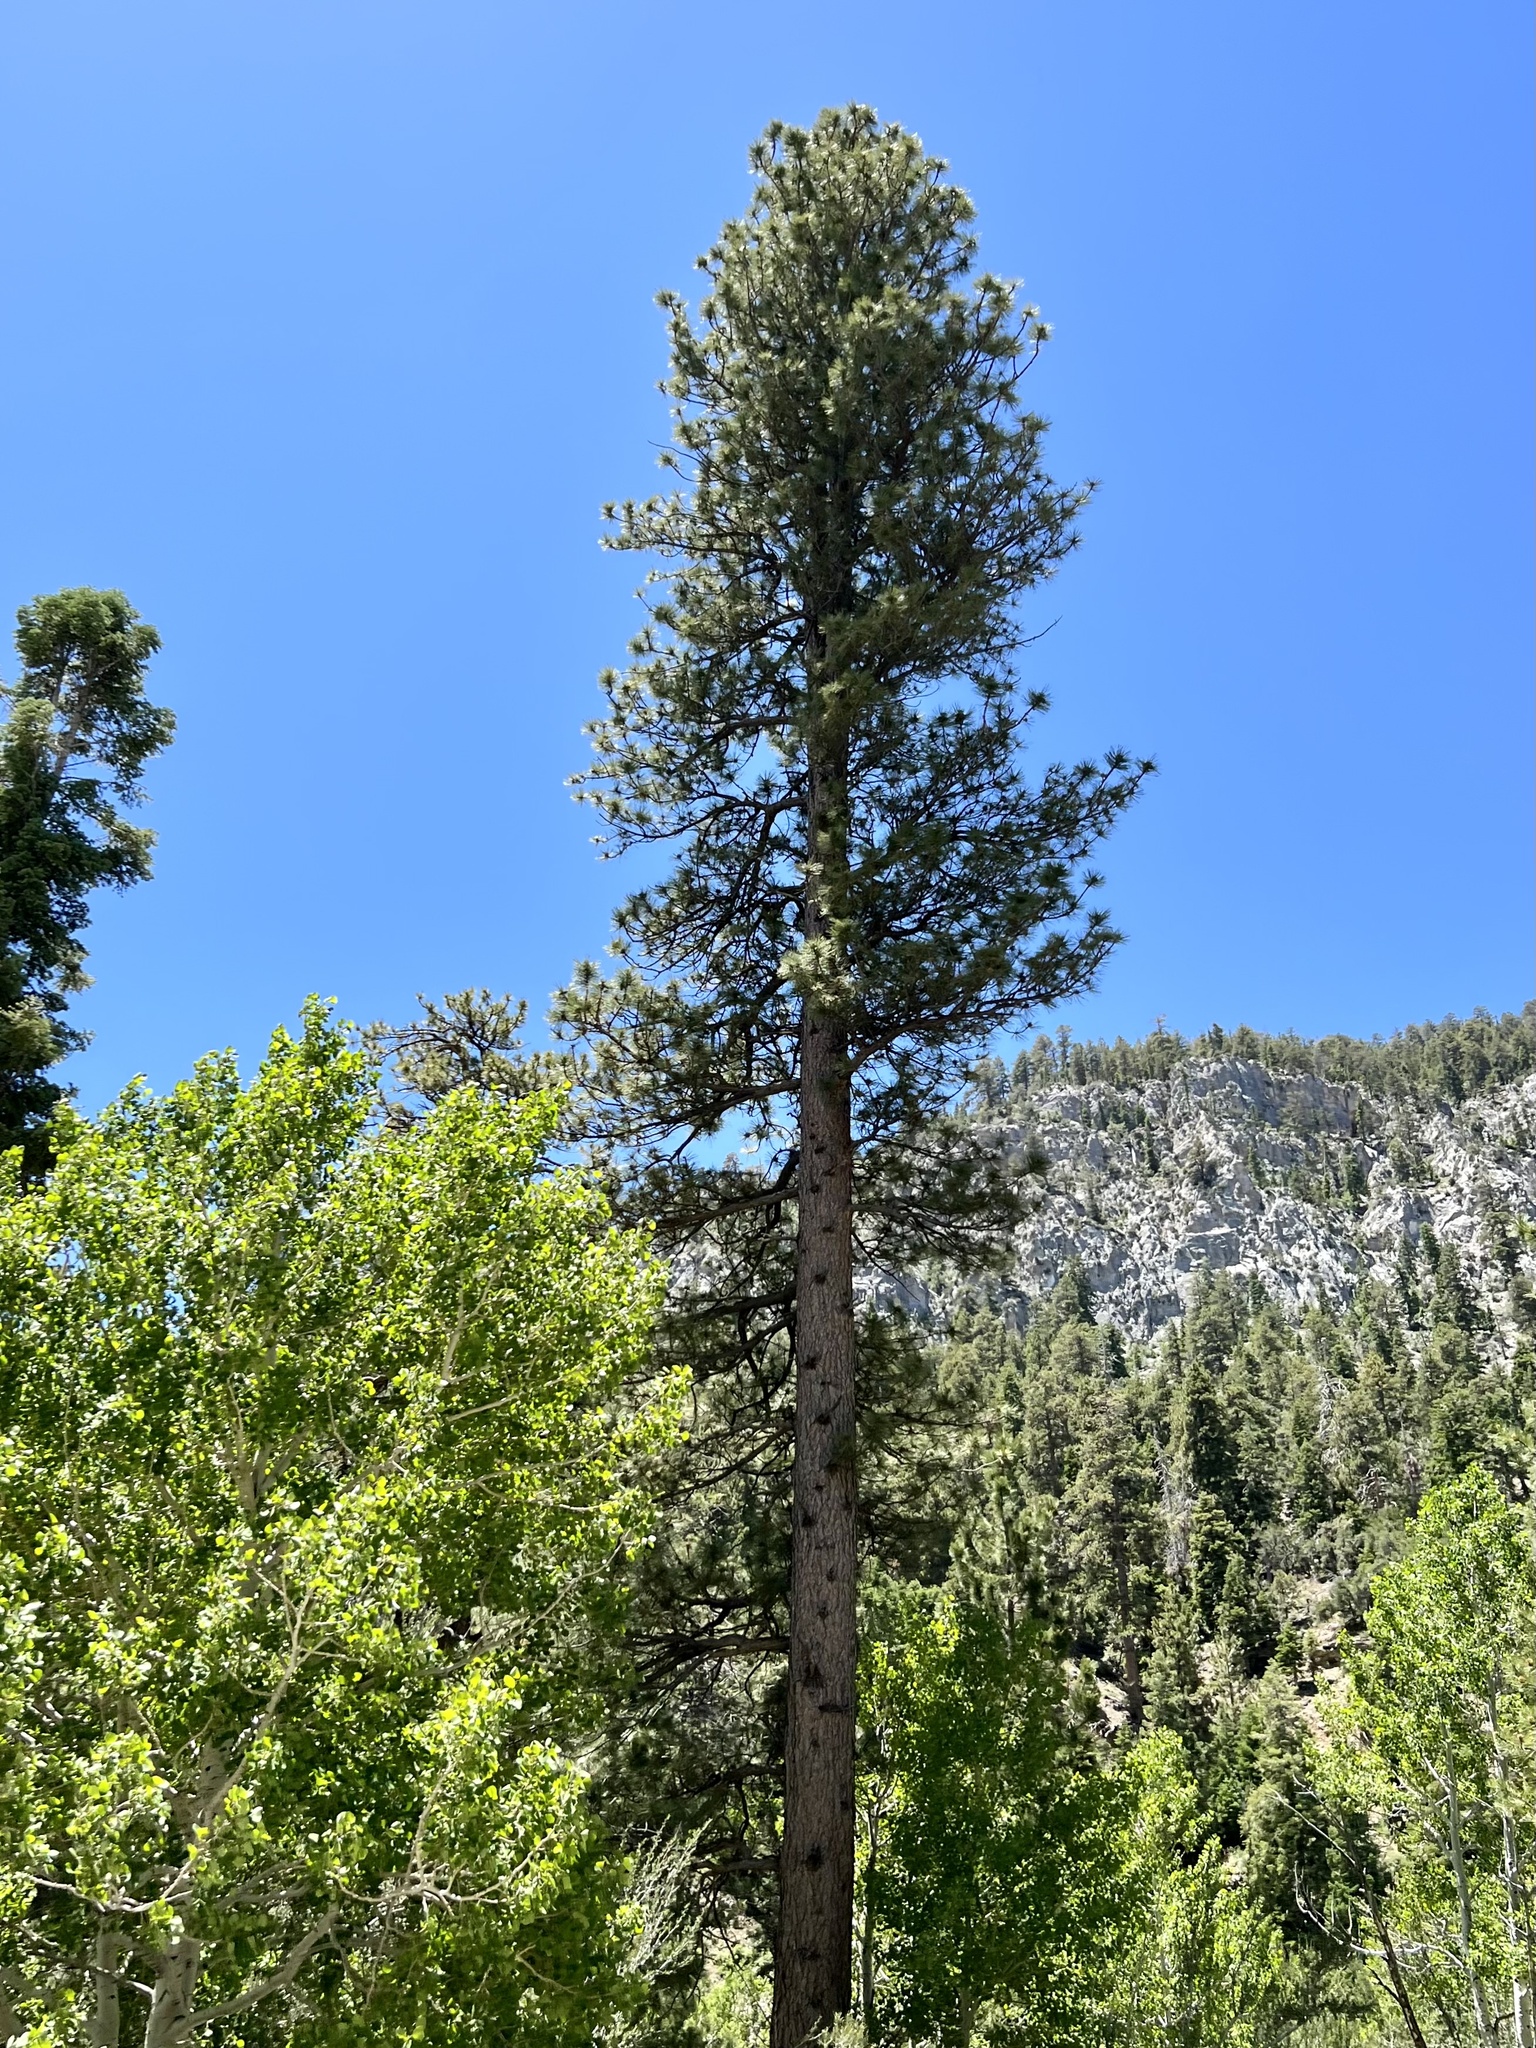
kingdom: Plantae
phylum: Tracheophyta
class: Pinopsida
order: Pinales
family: Pinaceae
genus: Pinus
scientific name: Pinus ponderosa
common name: Western yellow-pine
